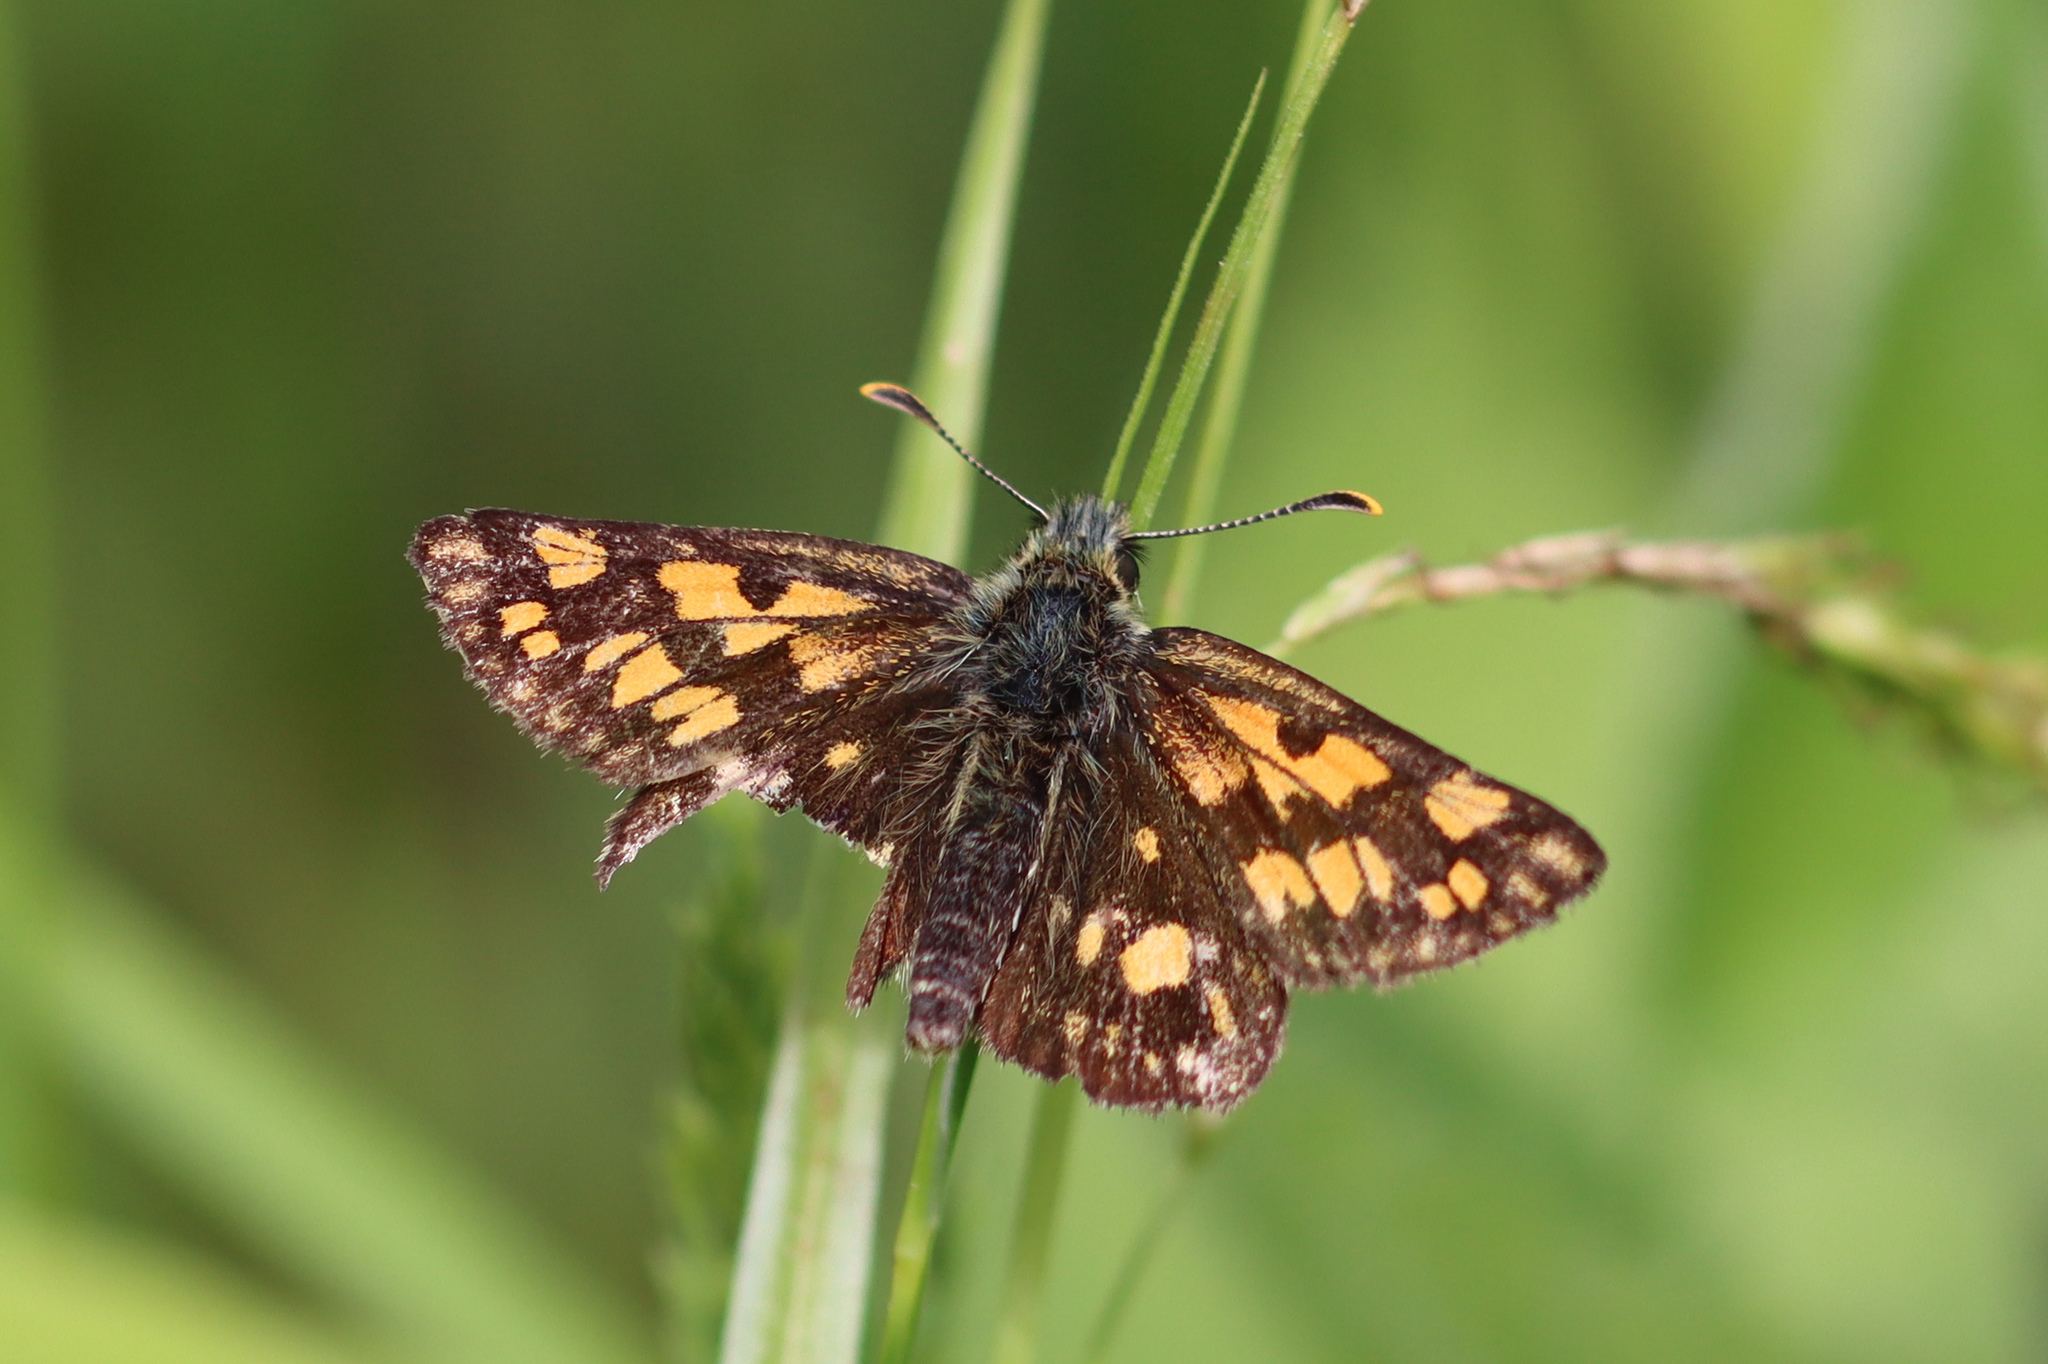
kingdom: Animalia
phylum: Arthropoda
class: Insecta
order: Lepidoptera
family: Hesperiidae
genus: Carterocephalus
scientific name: Carterocephalus palaemon
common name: Chequered skipper
